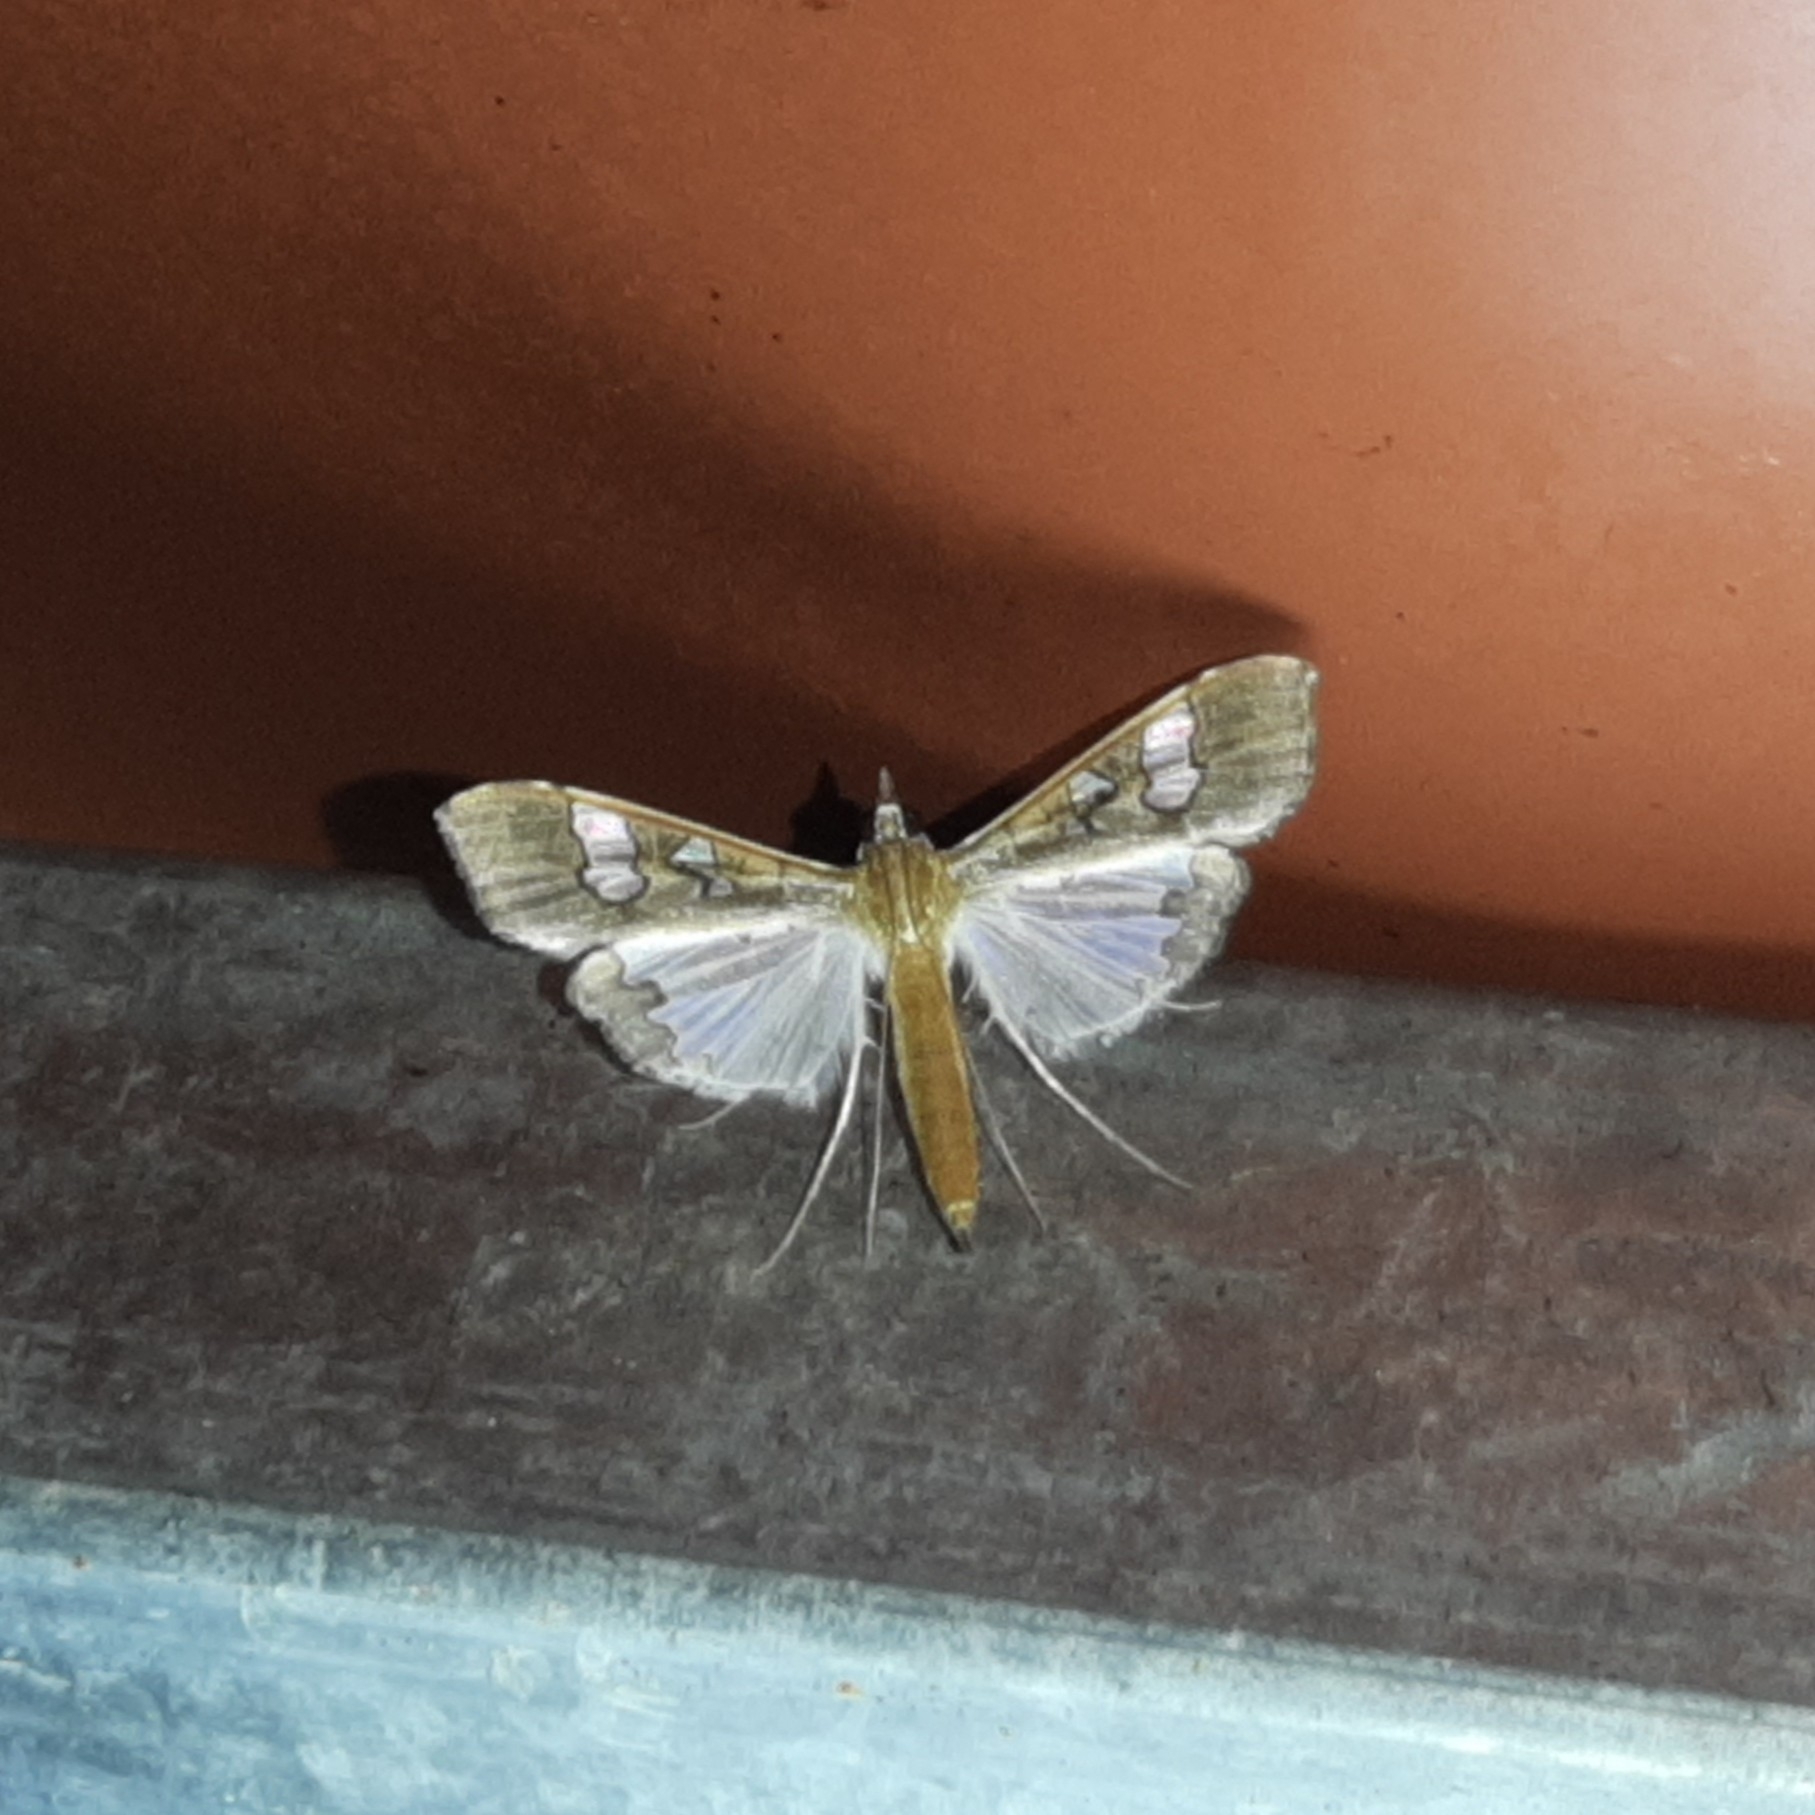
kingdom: Animalia
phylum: Arthropoda
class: Insecta
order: Lepidoptera
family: Crambidae
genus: Maruca
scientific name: Maruca vitrata
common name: Maruca pod borer
